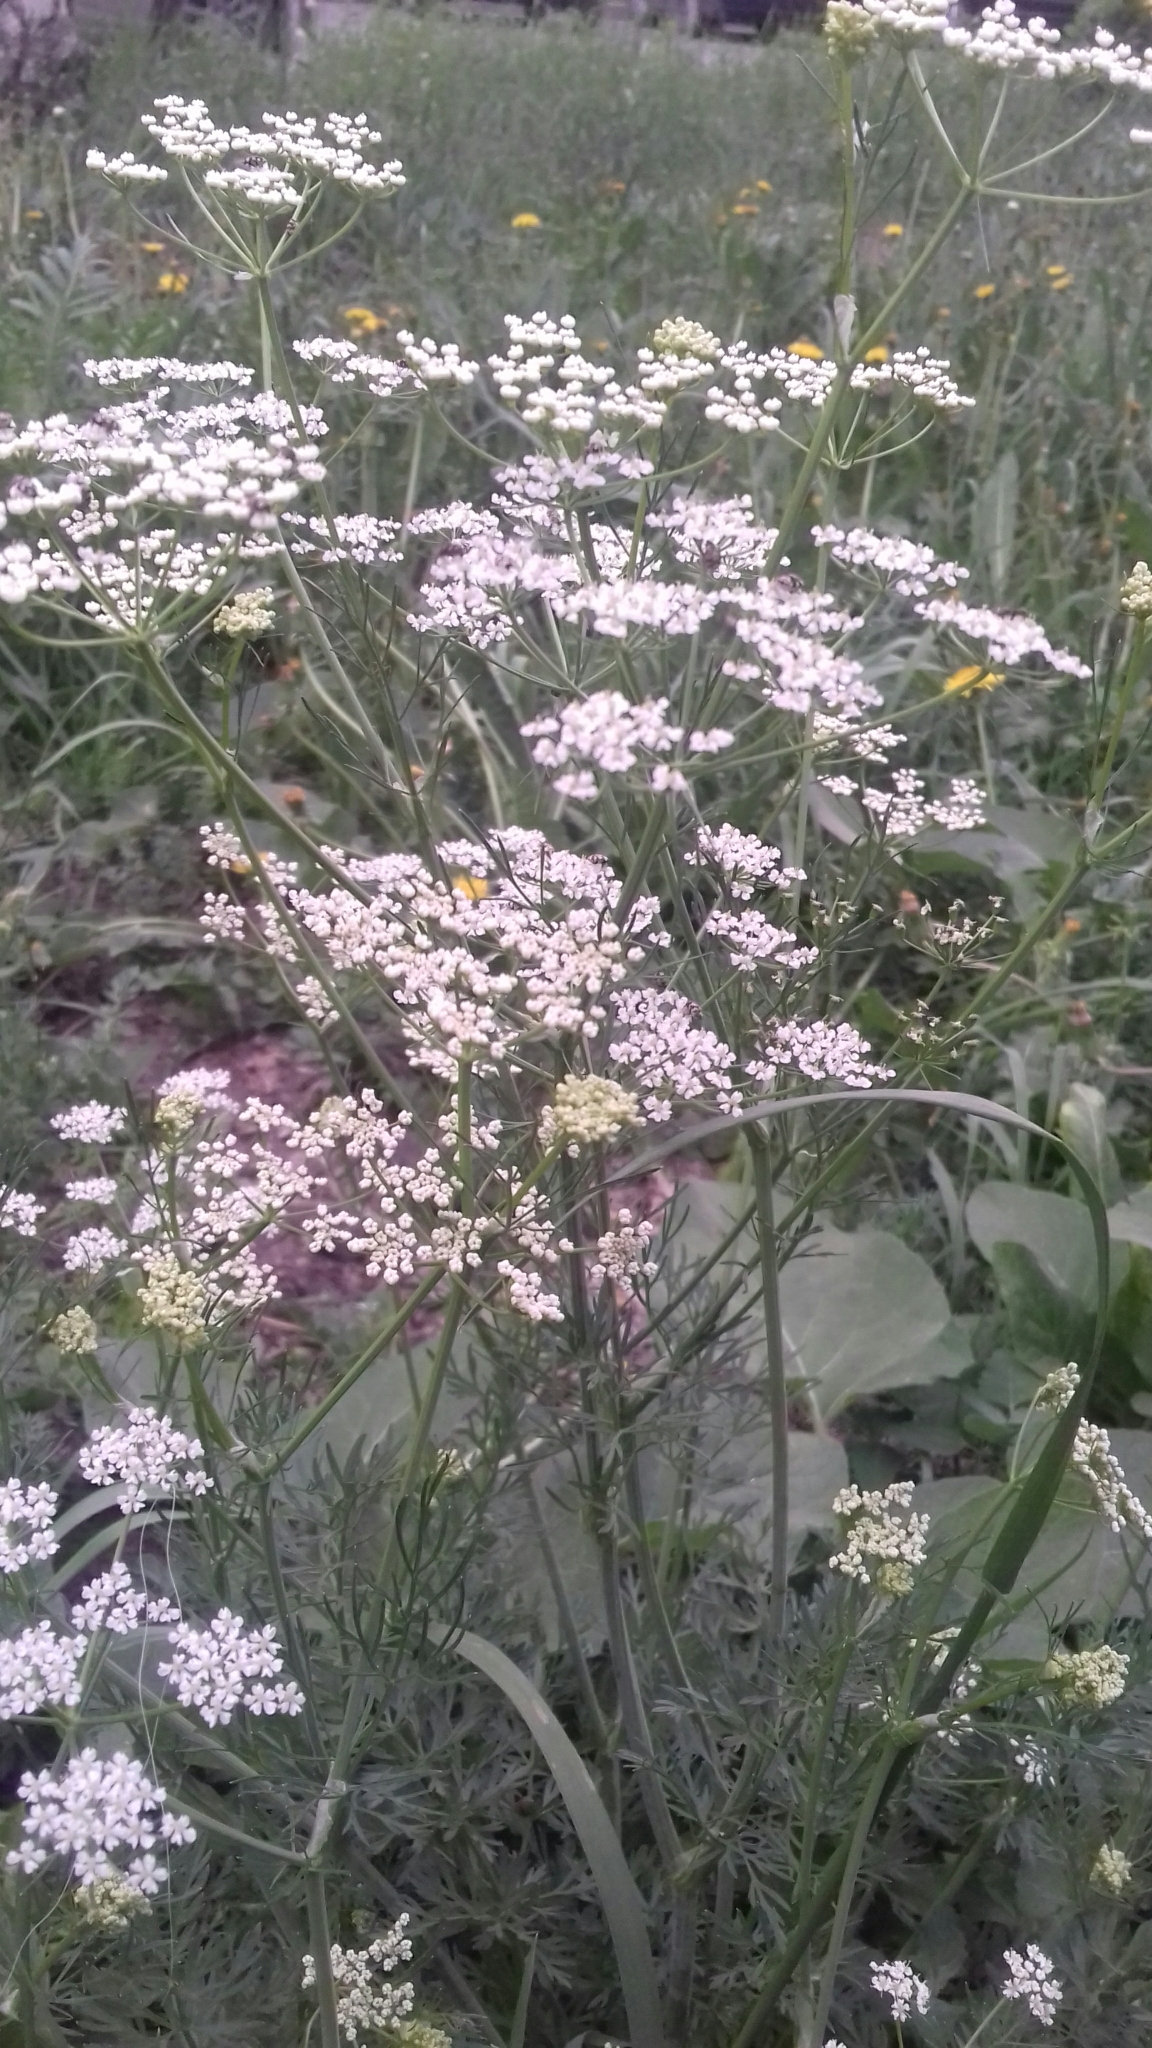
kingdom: Plantae
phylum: Tracheophyta
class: Magnoliopsida
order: Apiales
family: Apiaceae
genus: Carum
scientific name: Carum carvi
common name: Caraway
